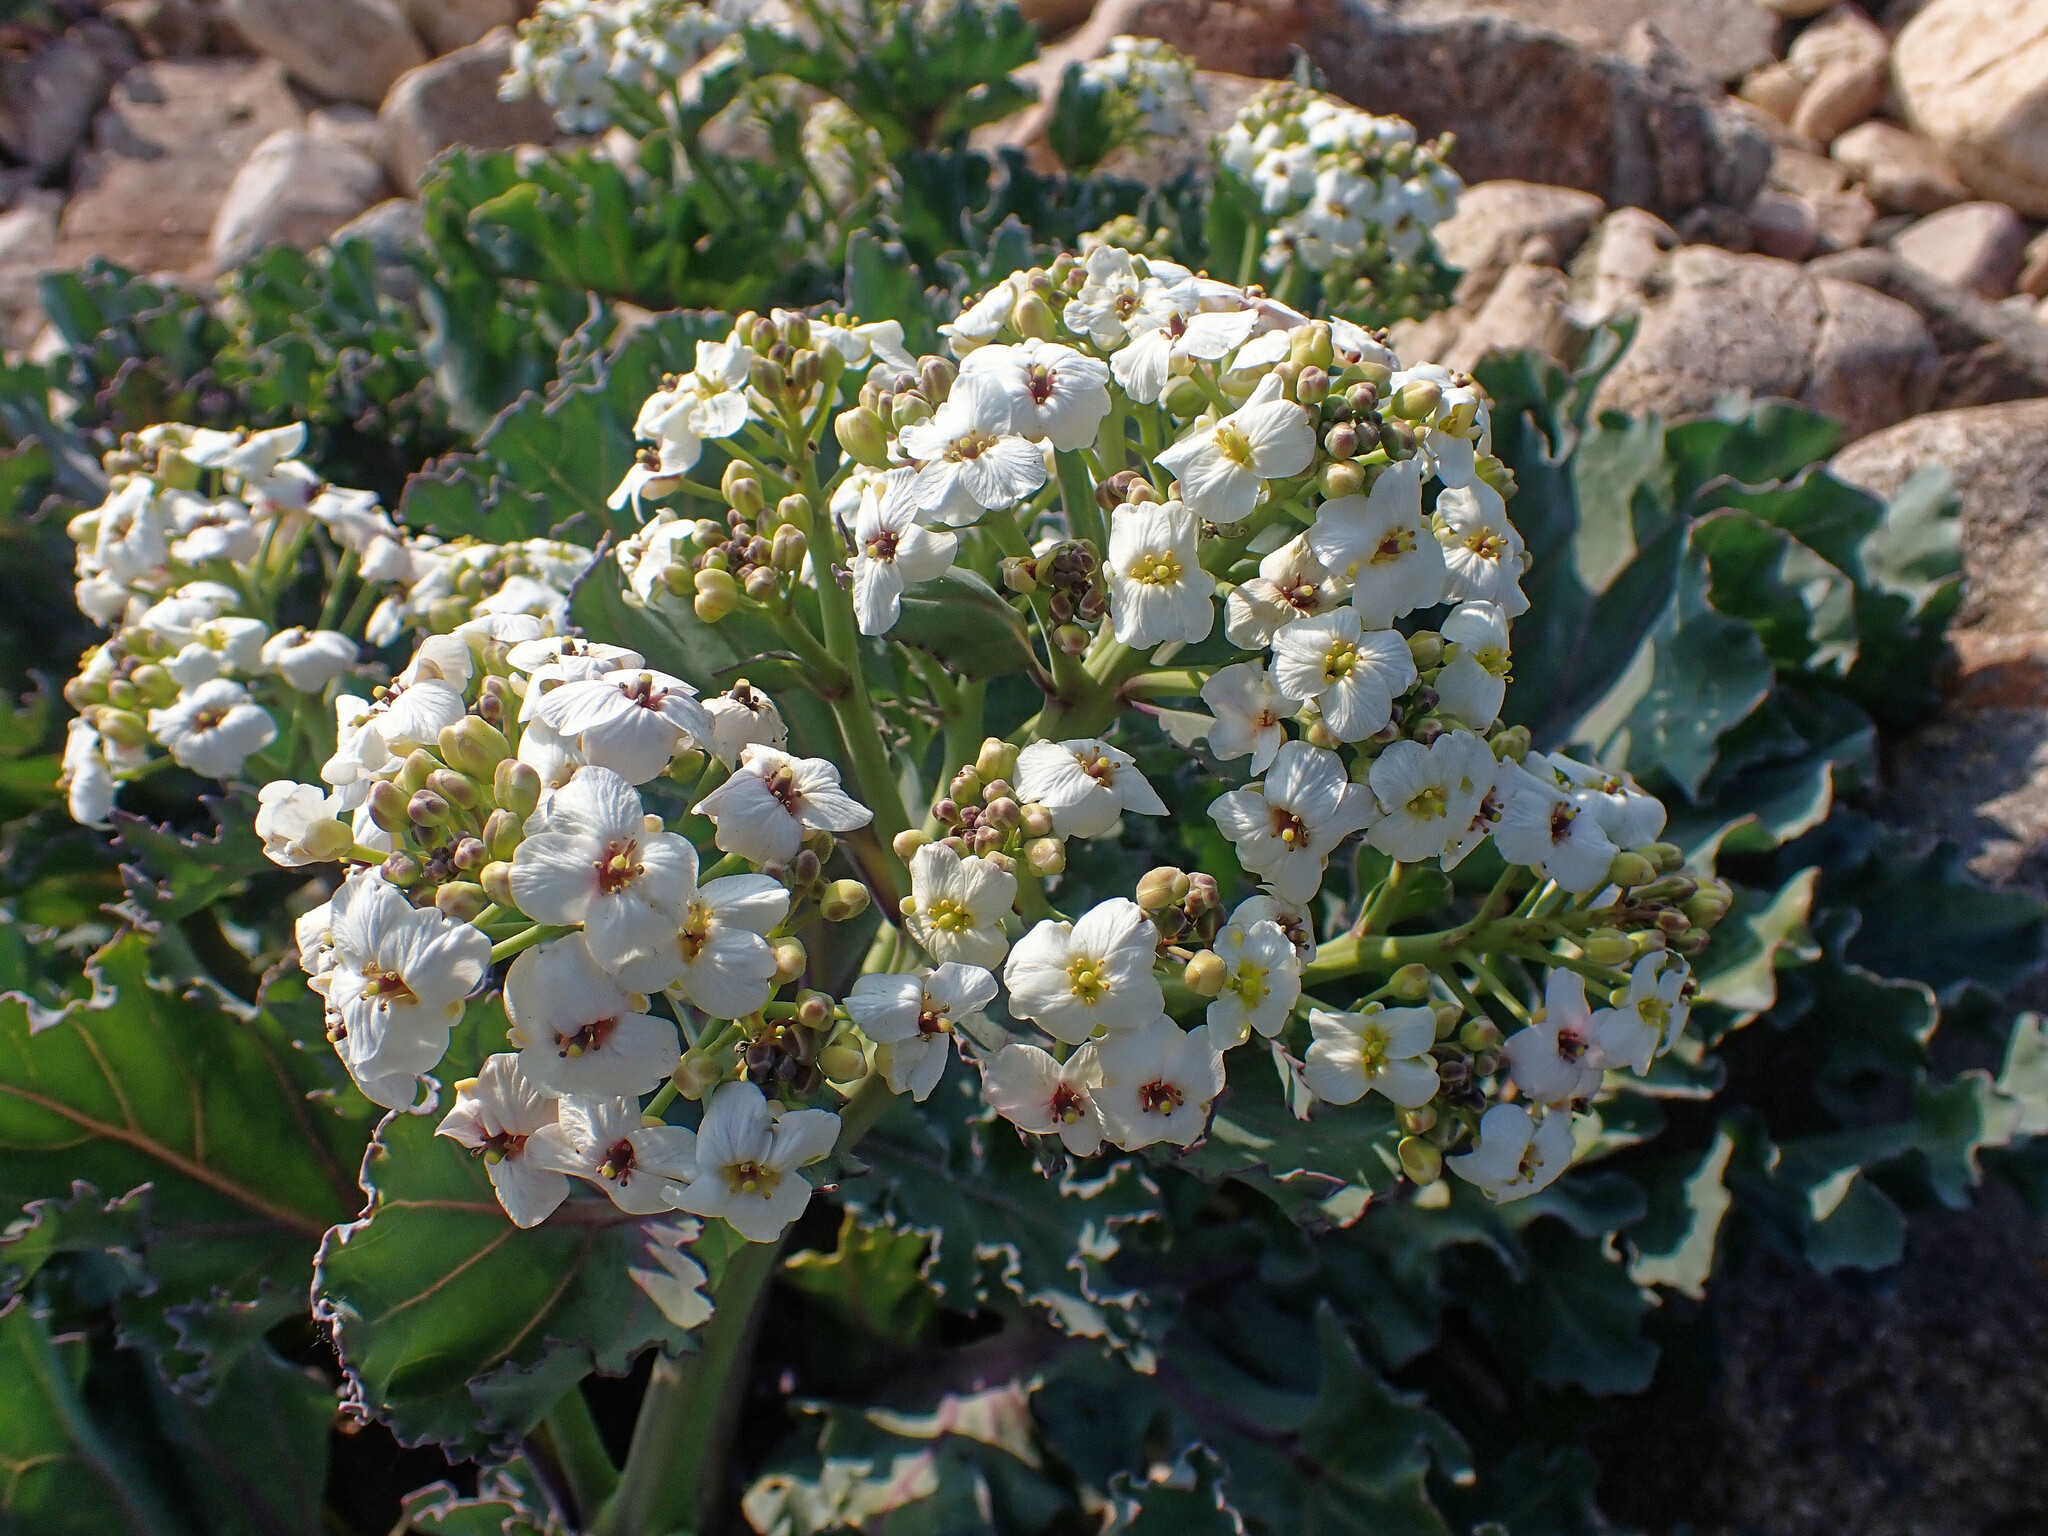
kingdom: Plantae
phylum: Tracheophyta
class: Magnoliopsida
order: Brassicales
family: Brassicaceae
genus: Crambe
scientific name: Crambe maritima
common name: Sea-kale
